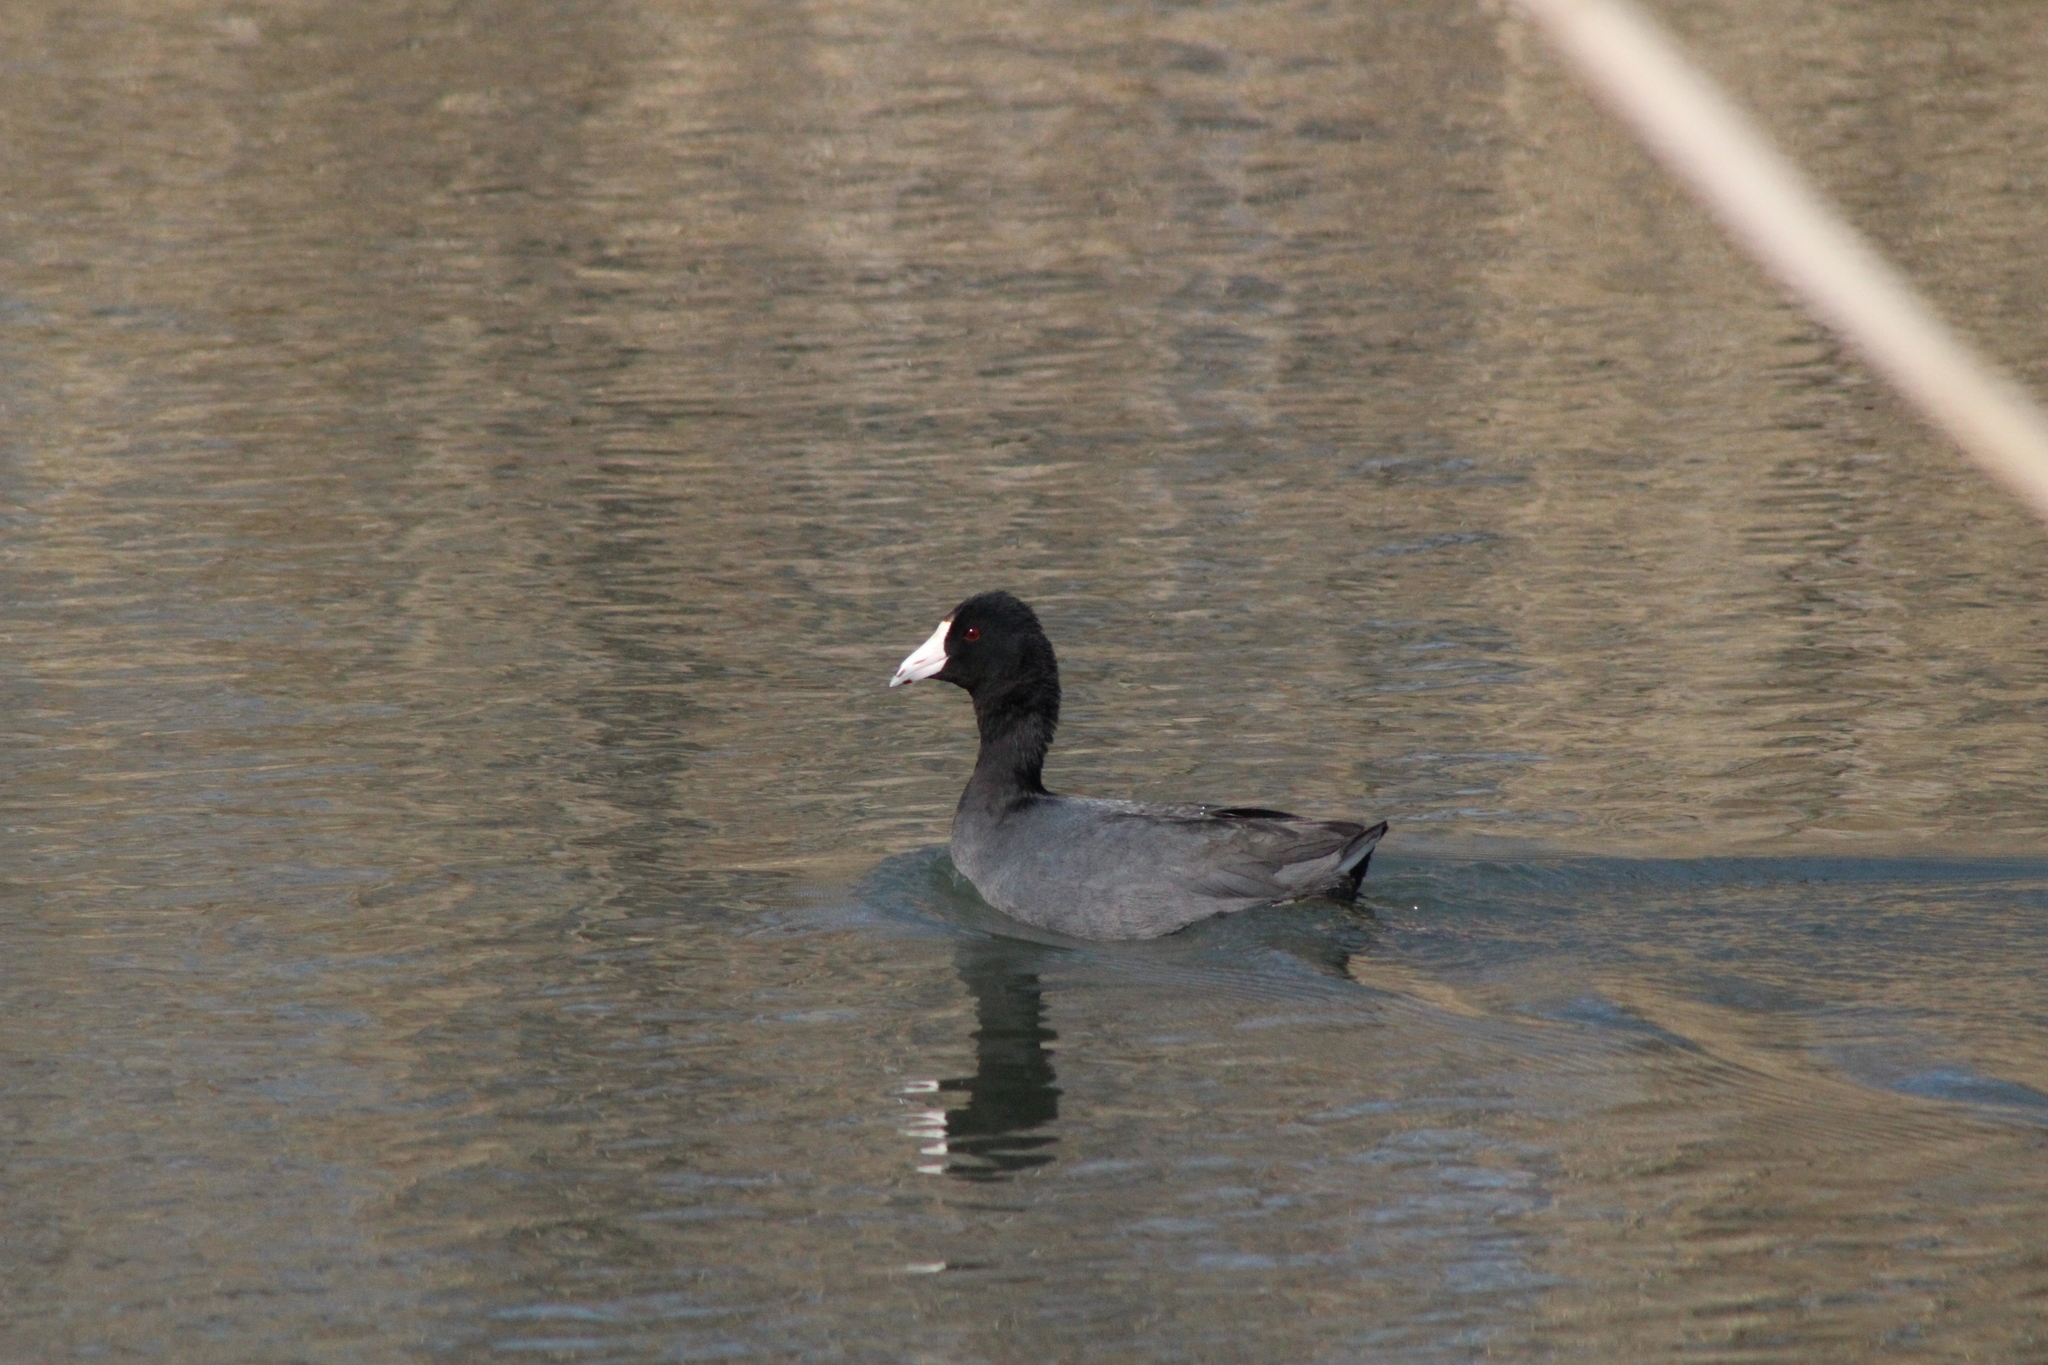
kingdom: Animalia
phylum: Chordata
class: Aves
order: Gruiformes
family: Rallidae
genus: Fulica
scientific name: Fulica americana
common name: American coot
